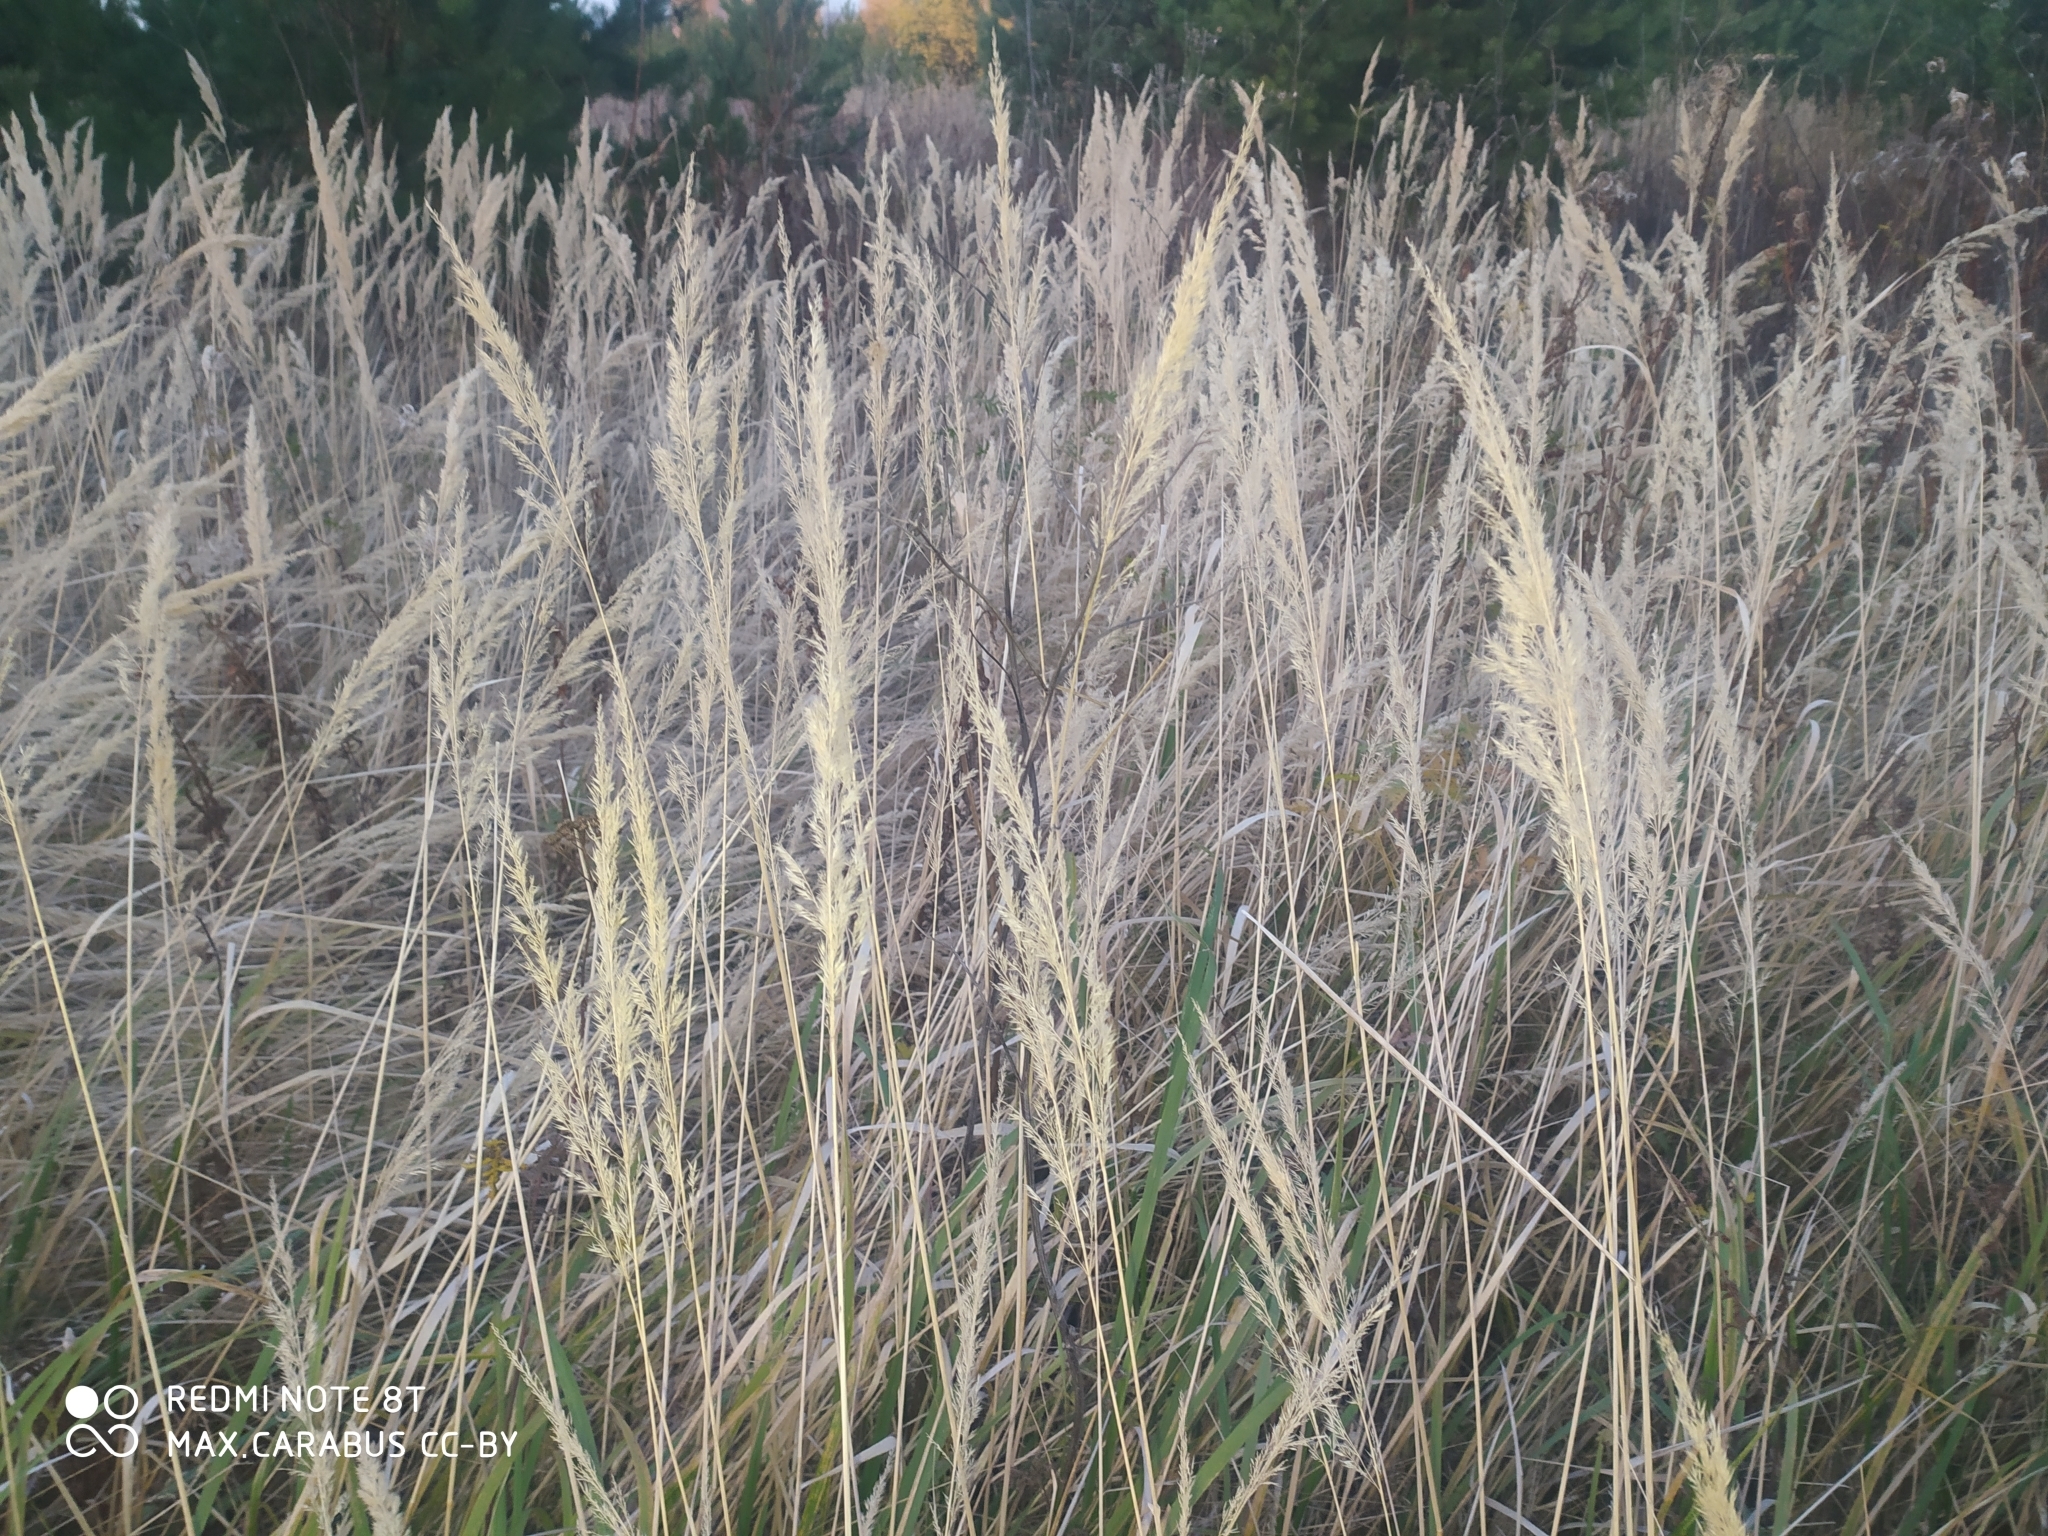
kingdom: Plantae
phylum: Tracheophyta
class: Liliopsida
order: Poales
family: Poaceae
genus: Calamagrostis
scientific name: Calamagrostis epigejos
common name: Wood small-reed
